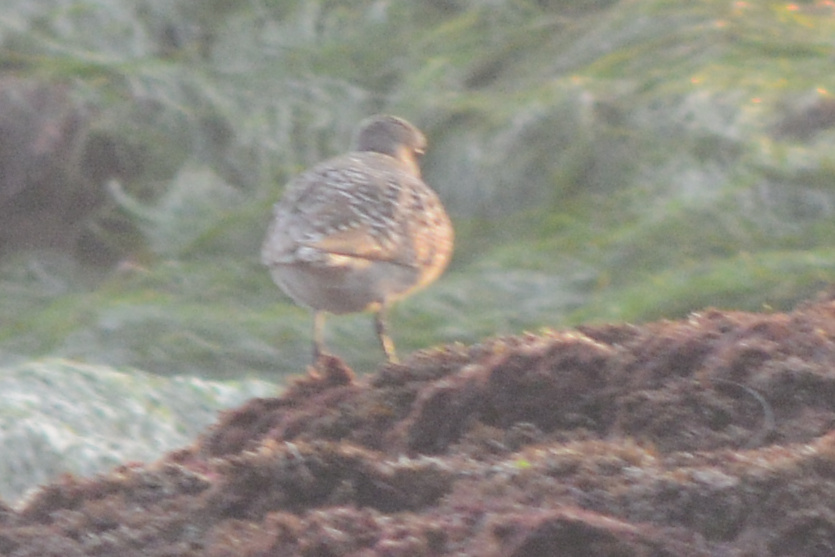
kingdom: Animalia
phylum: Chordata
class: Aves
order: Charadriiformes
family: Charadriidae
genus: Pluvialis
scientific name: Pluvialis squatarola
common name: Grey plover
